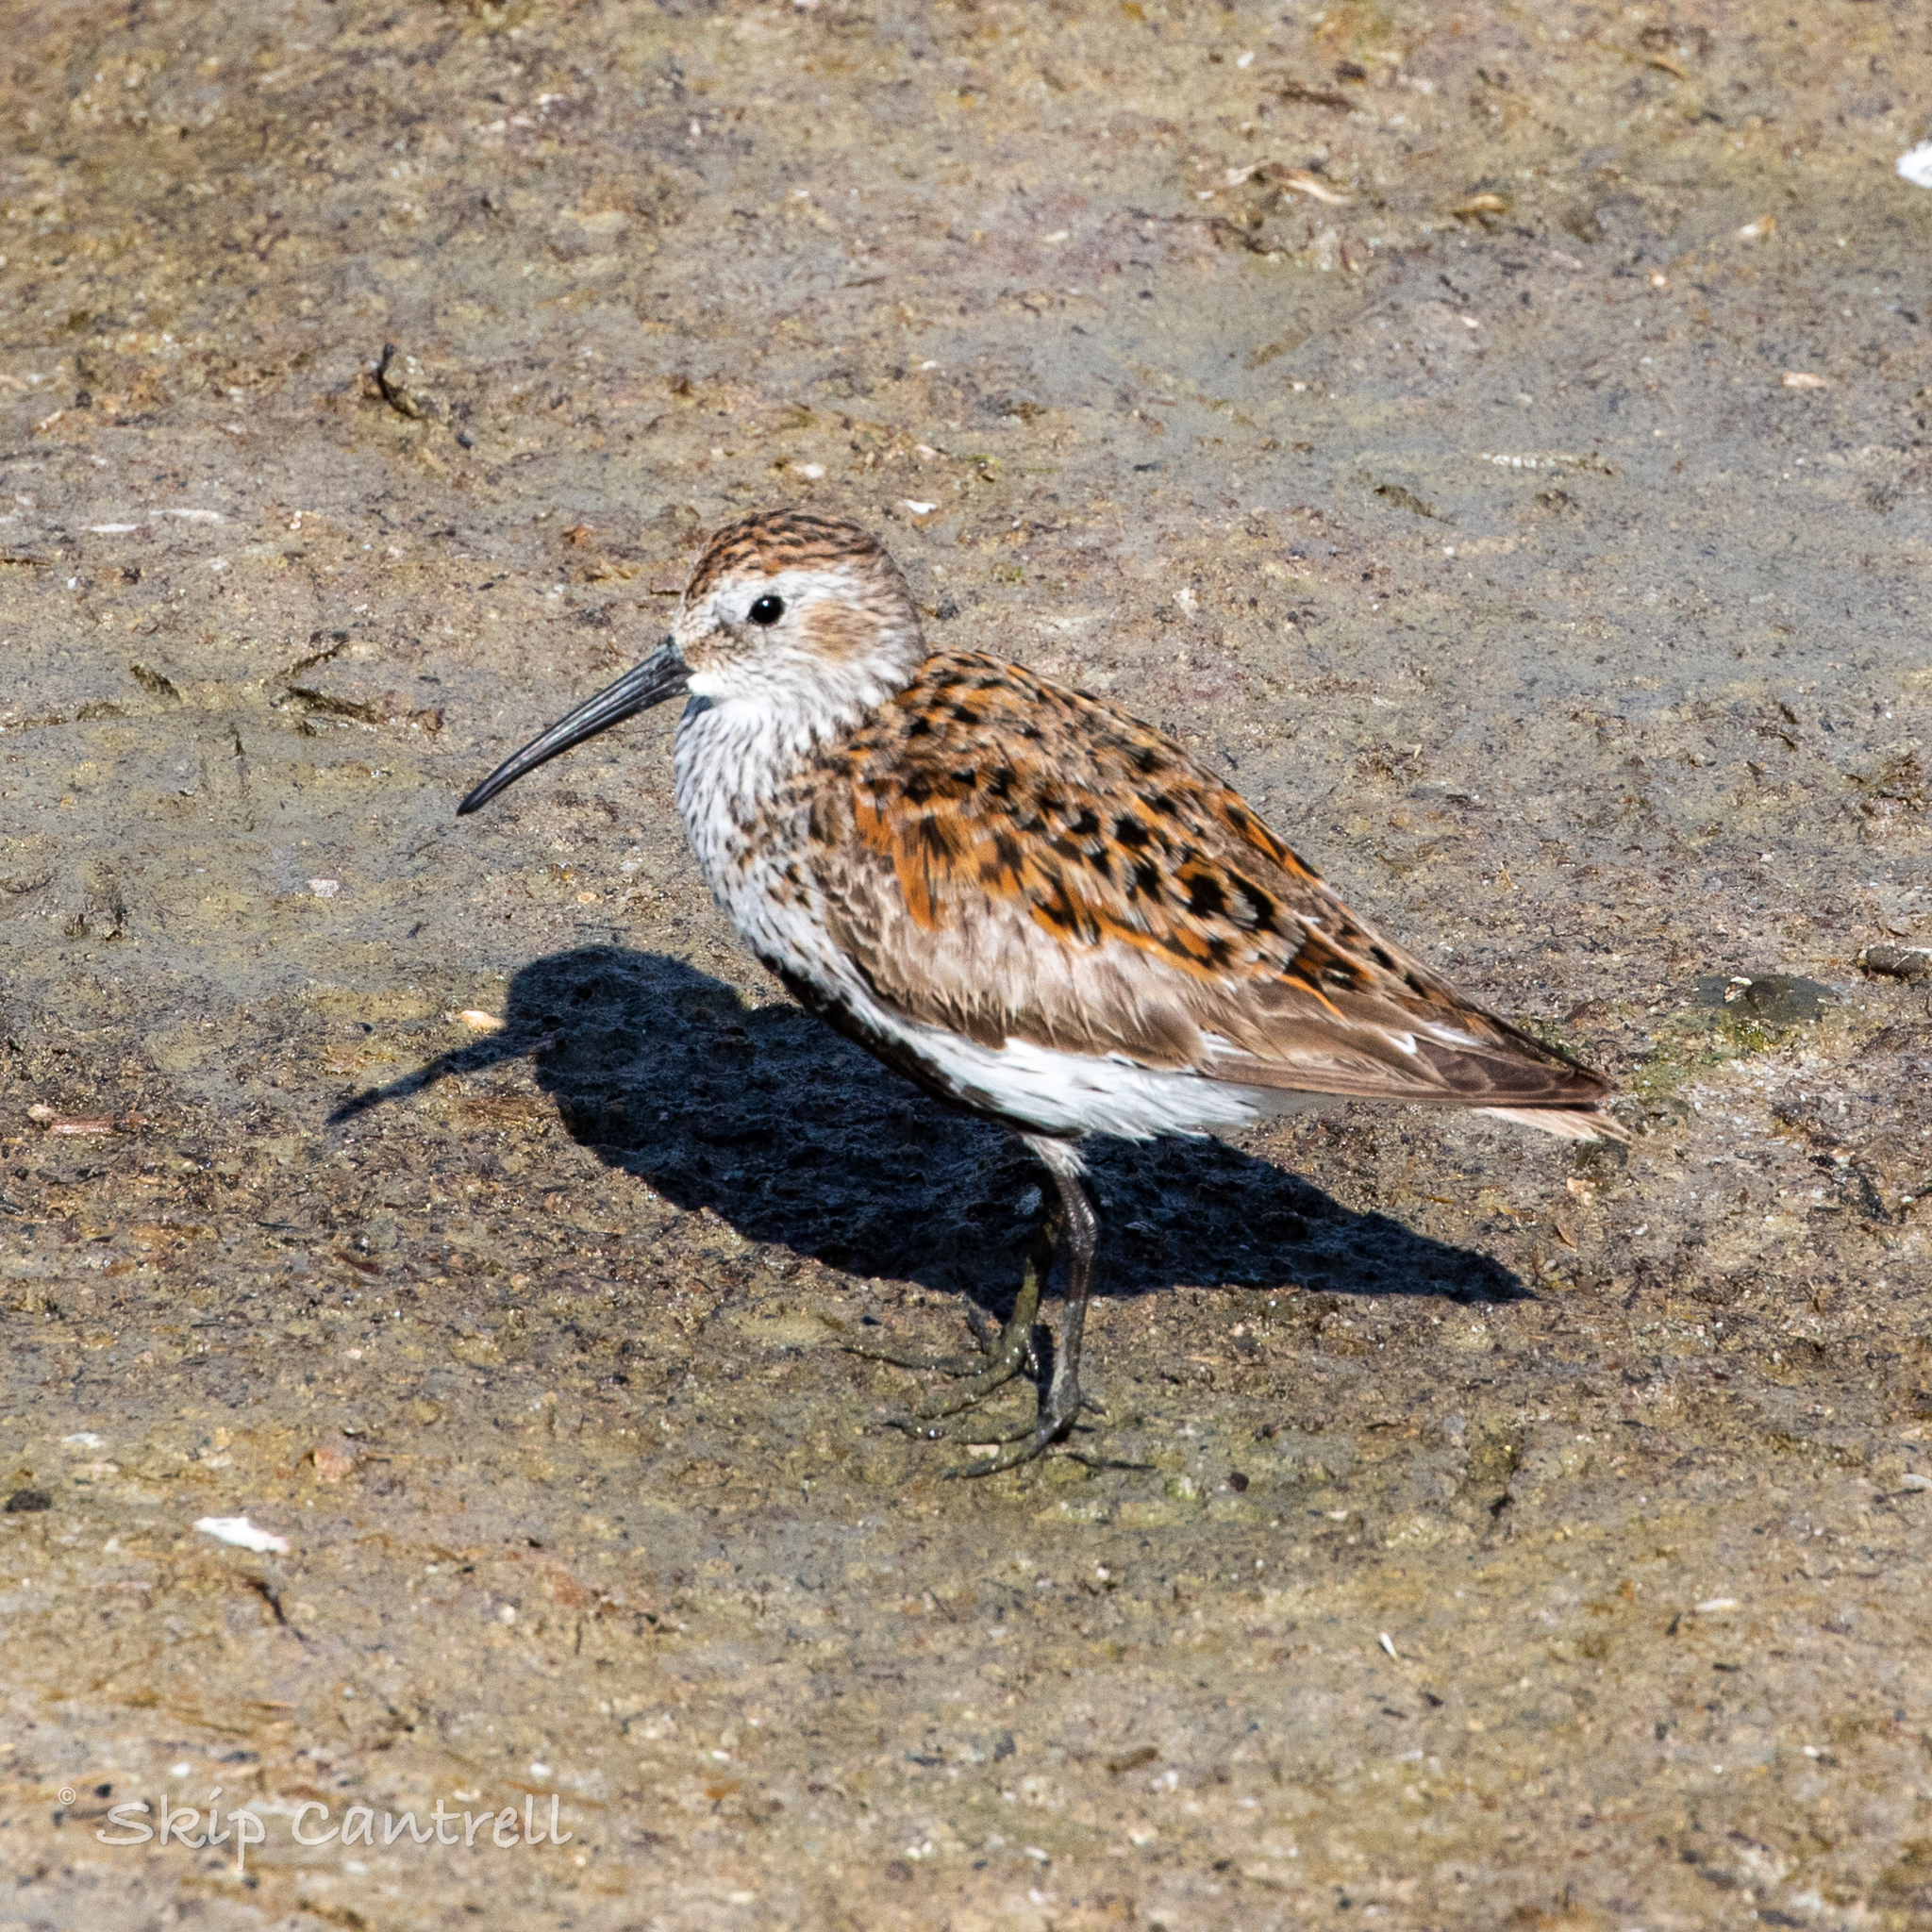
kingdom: Animalia
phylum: Chordata
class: Aves
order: Charadriiformes
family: Scolopacidae
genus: Calidris
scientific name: Calidris alpina
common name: Dunlin
